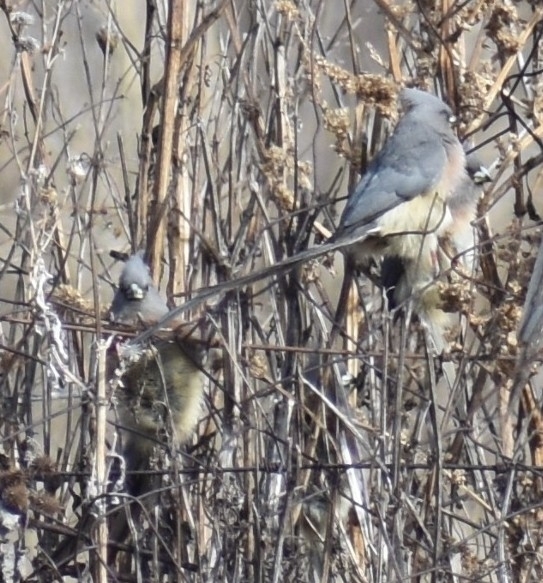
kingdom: Animalia
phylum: Chordata
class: Aves
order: Coliiformes
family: Coliidae
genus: Colius
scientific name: Colius colius
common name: White-backed mousebird
